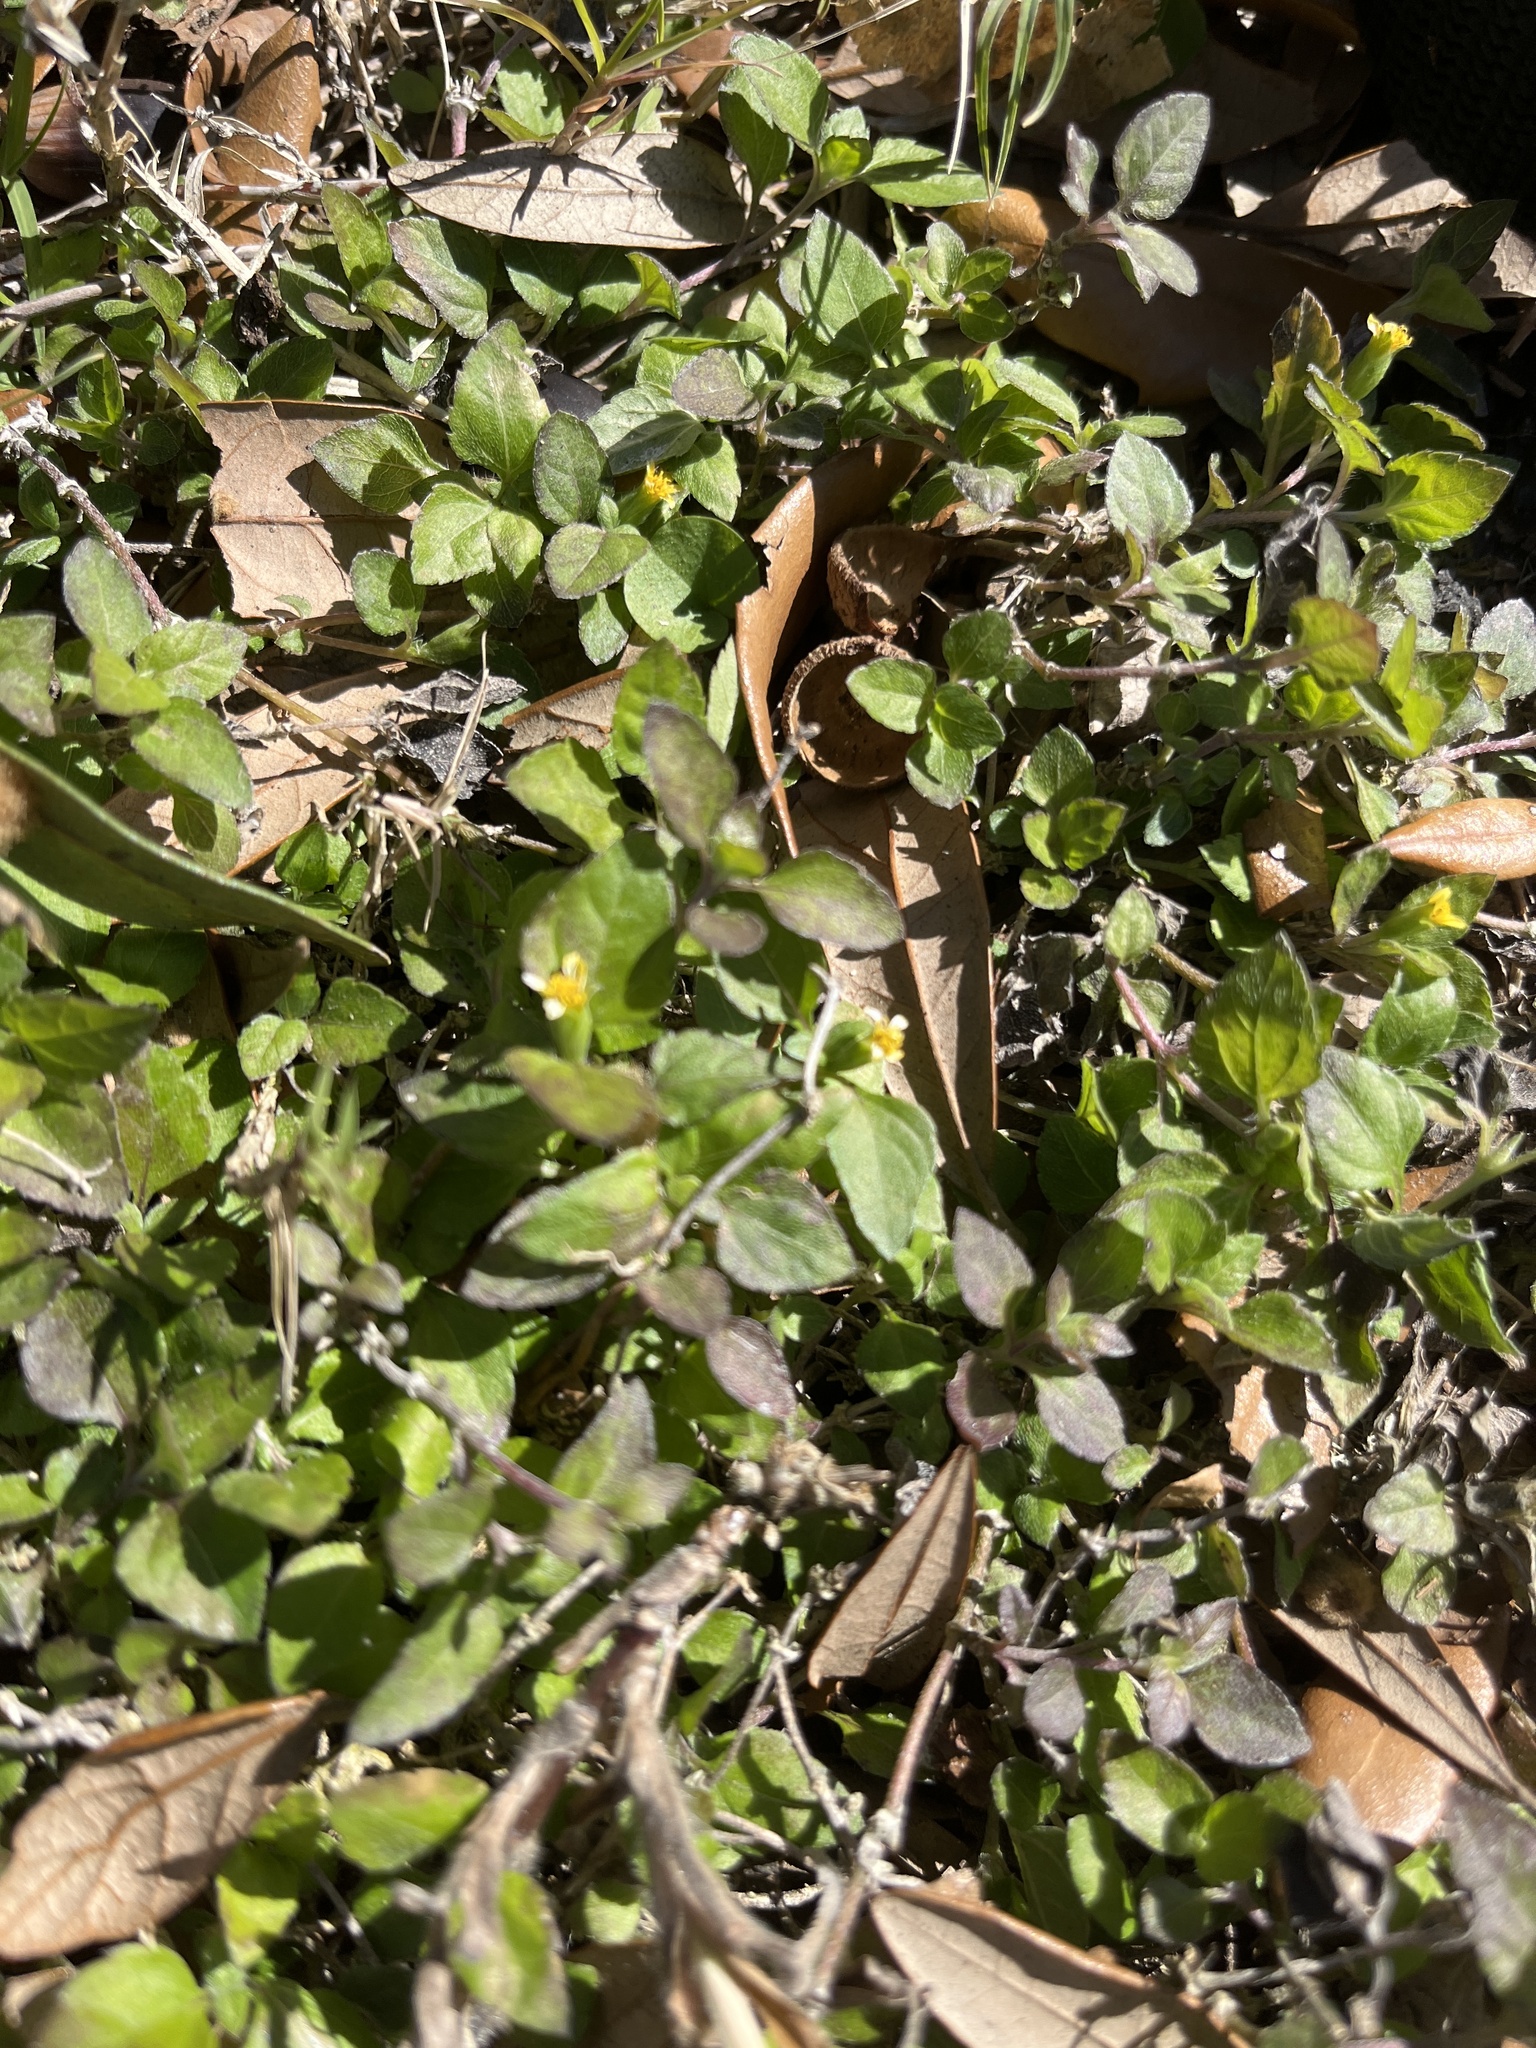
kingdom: Plantae
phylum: Tracheophyta
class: Magnoliopsida
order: Asterales
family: Asteraceae
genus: Calyptocarpus
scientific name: Calyptocarpus vialis
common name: Straggler daisy
